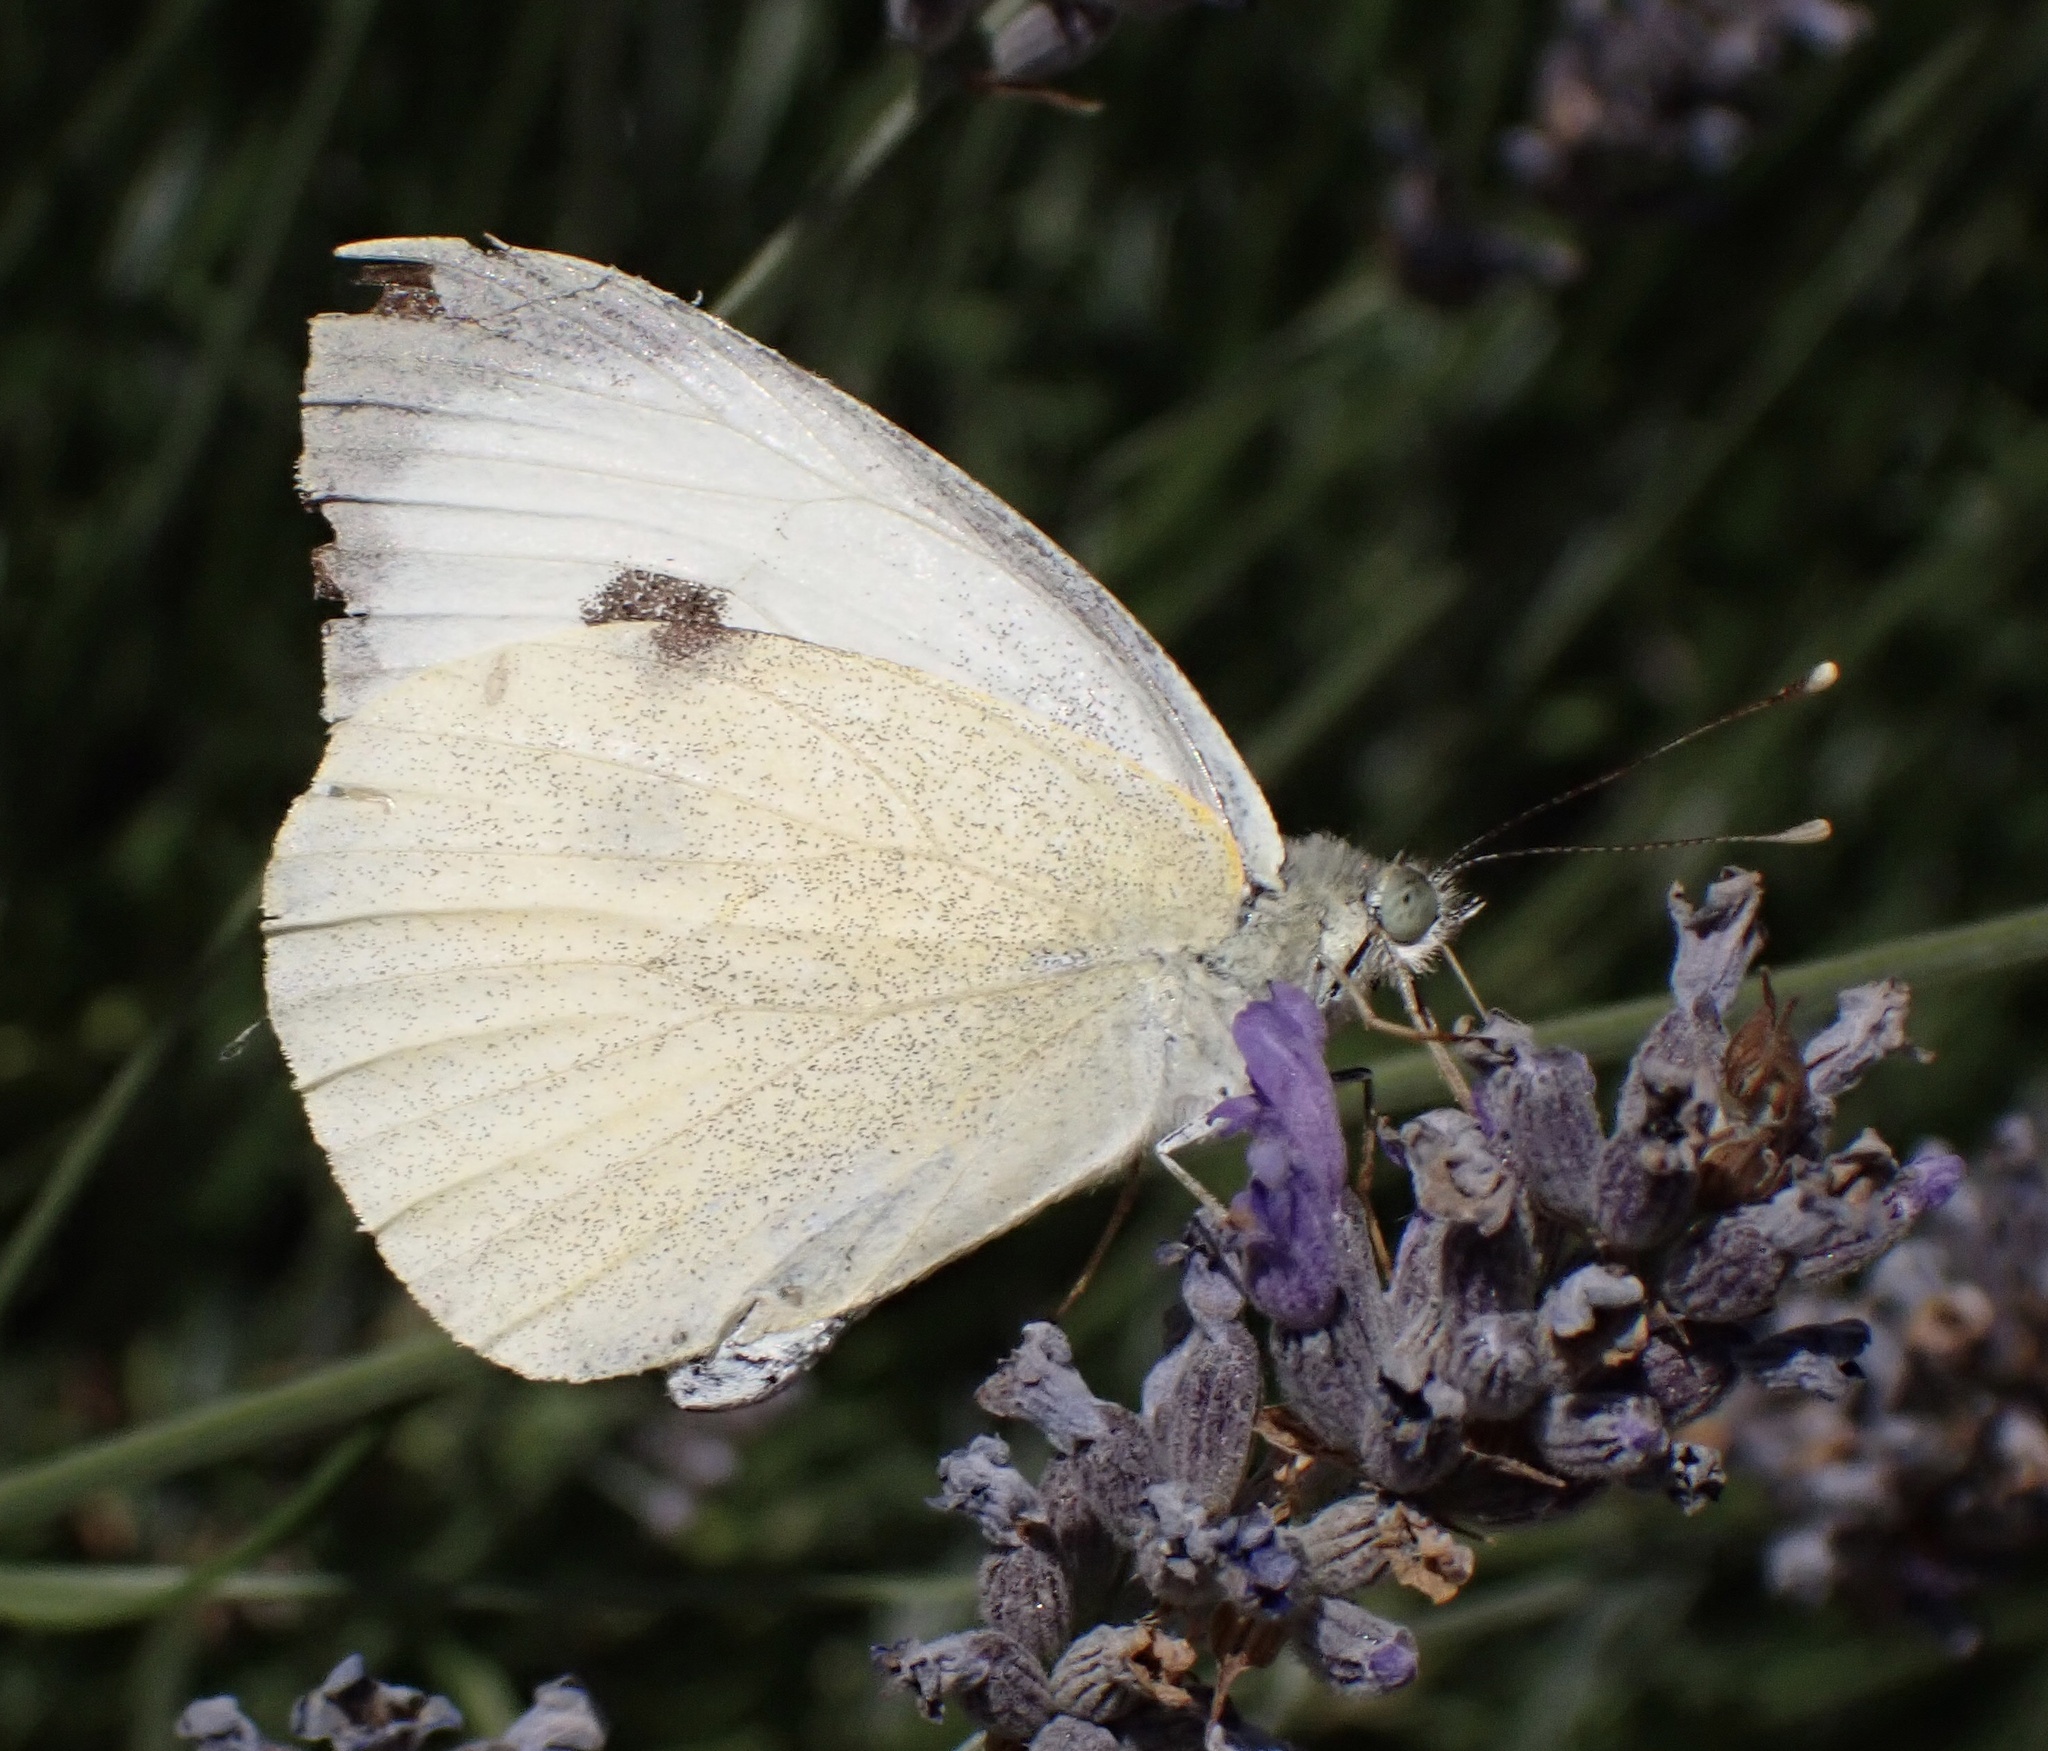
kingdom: Animalia
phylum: Arthropoda
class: Insecta
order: Lepidoptera
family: Pieridae
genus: Pieris
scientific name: Pieris brassicae
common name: Large white
